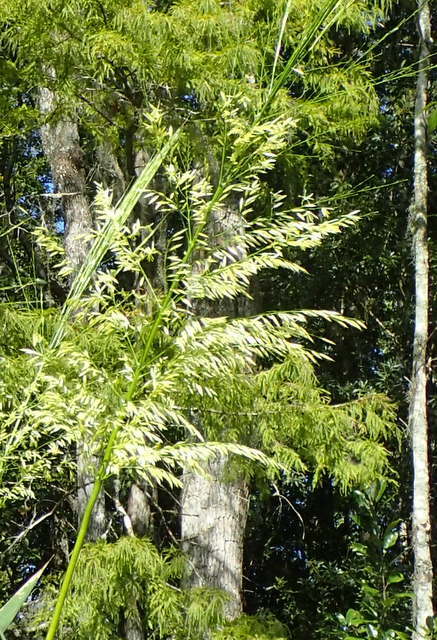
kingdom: Plantae
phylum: Tracheophyta
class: Liliopsida
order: Poales
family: Poaceae
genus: Zizania
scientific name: Zizania aquatica
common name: Annual wildrice
